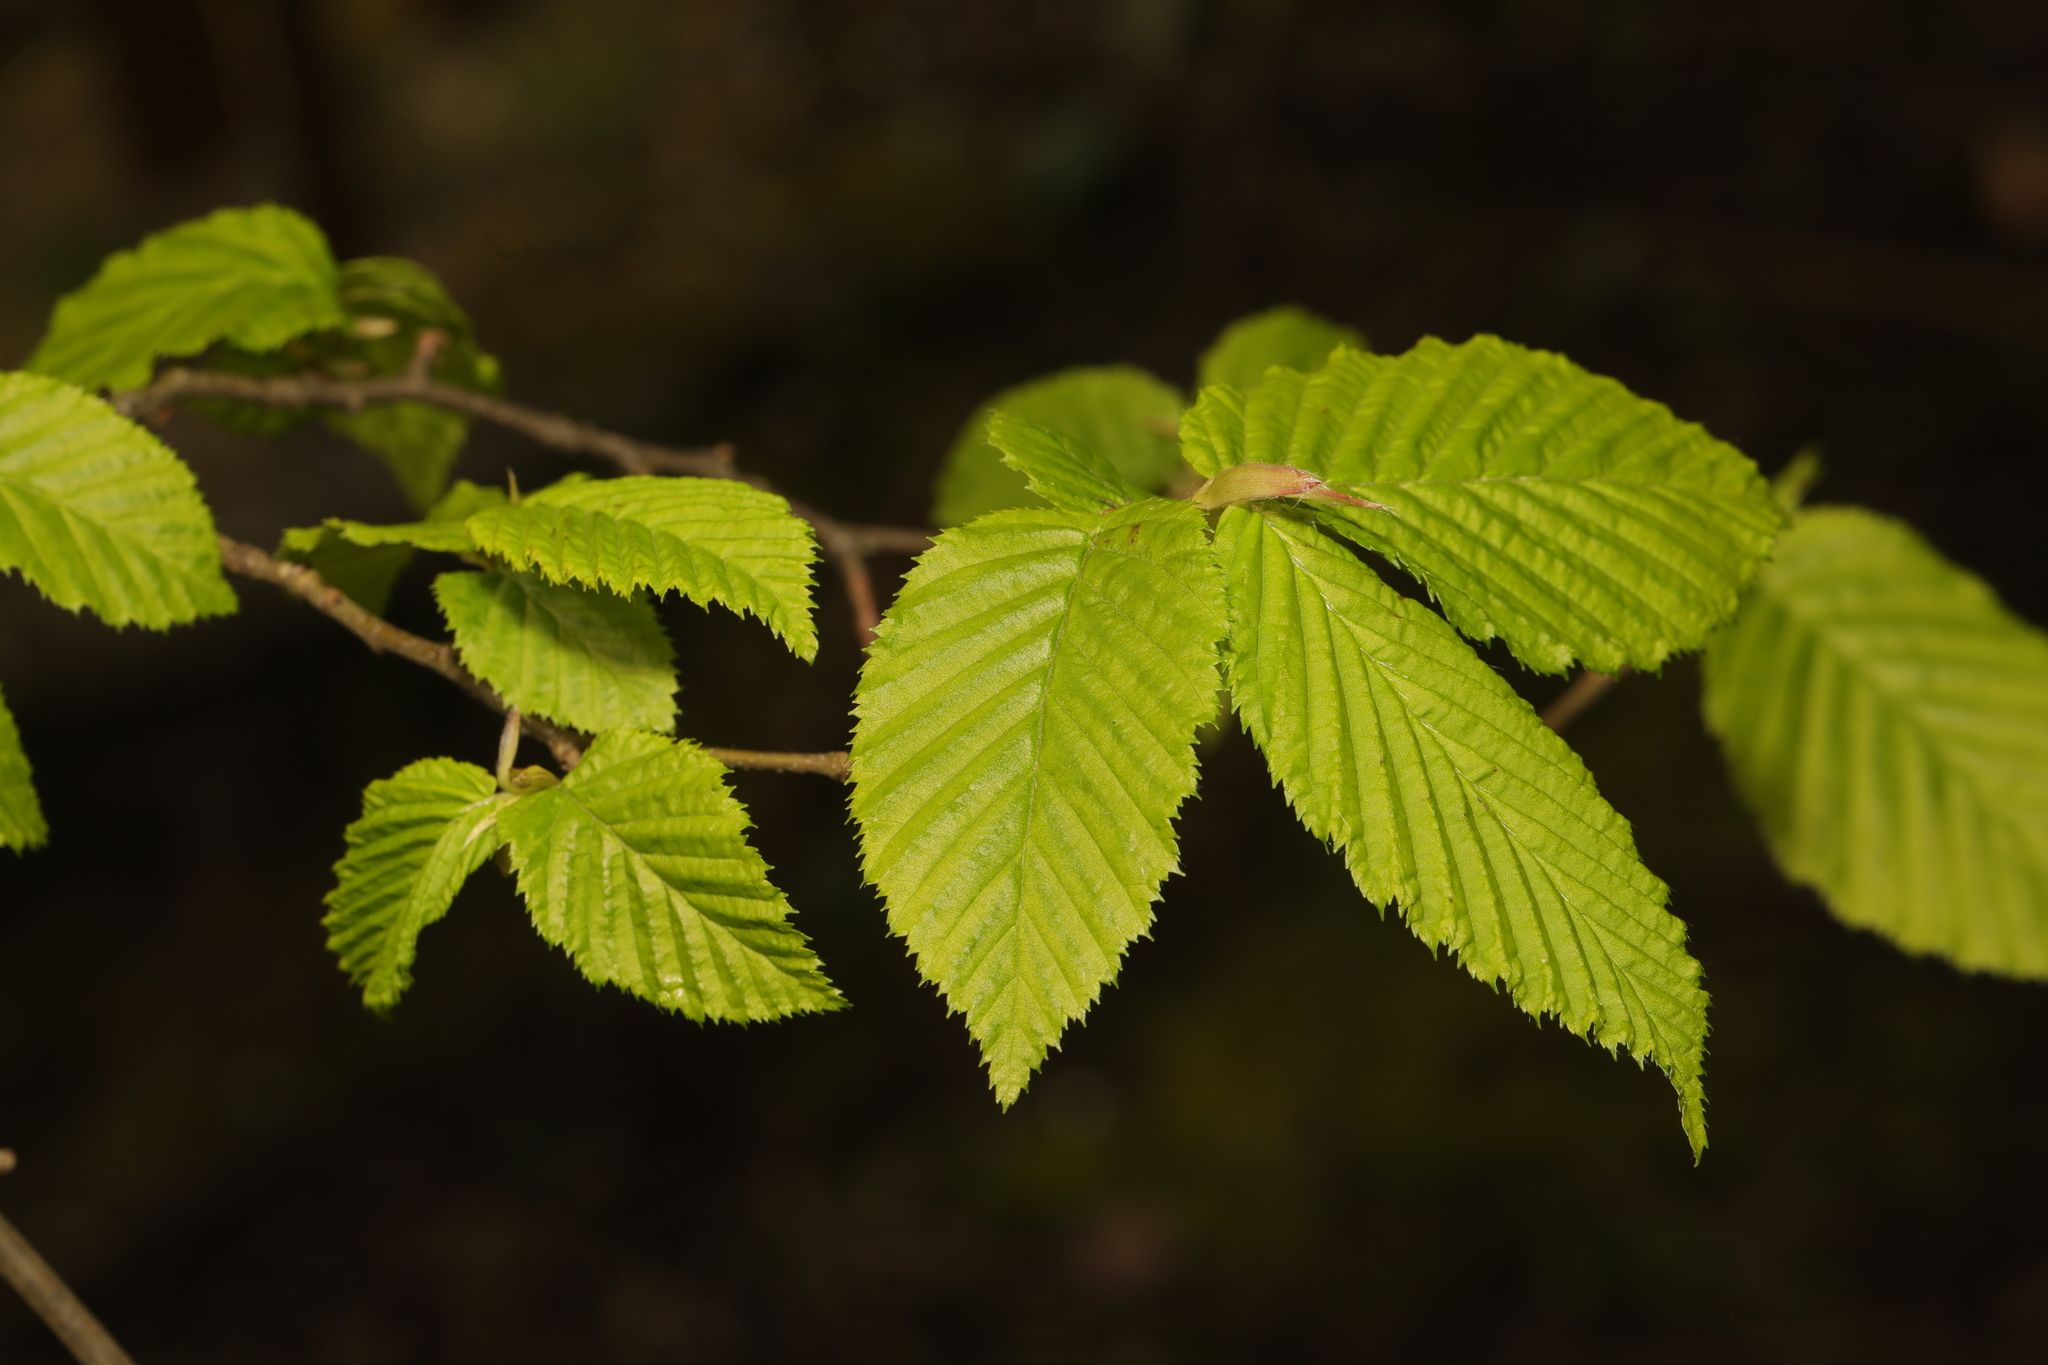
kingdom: Plantae
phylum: Tracheophyta
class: Magnoliopsida
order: Fagales
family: Betulaceae
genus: Carpinus
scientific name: Carpinus betulus
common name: Hornbeam
